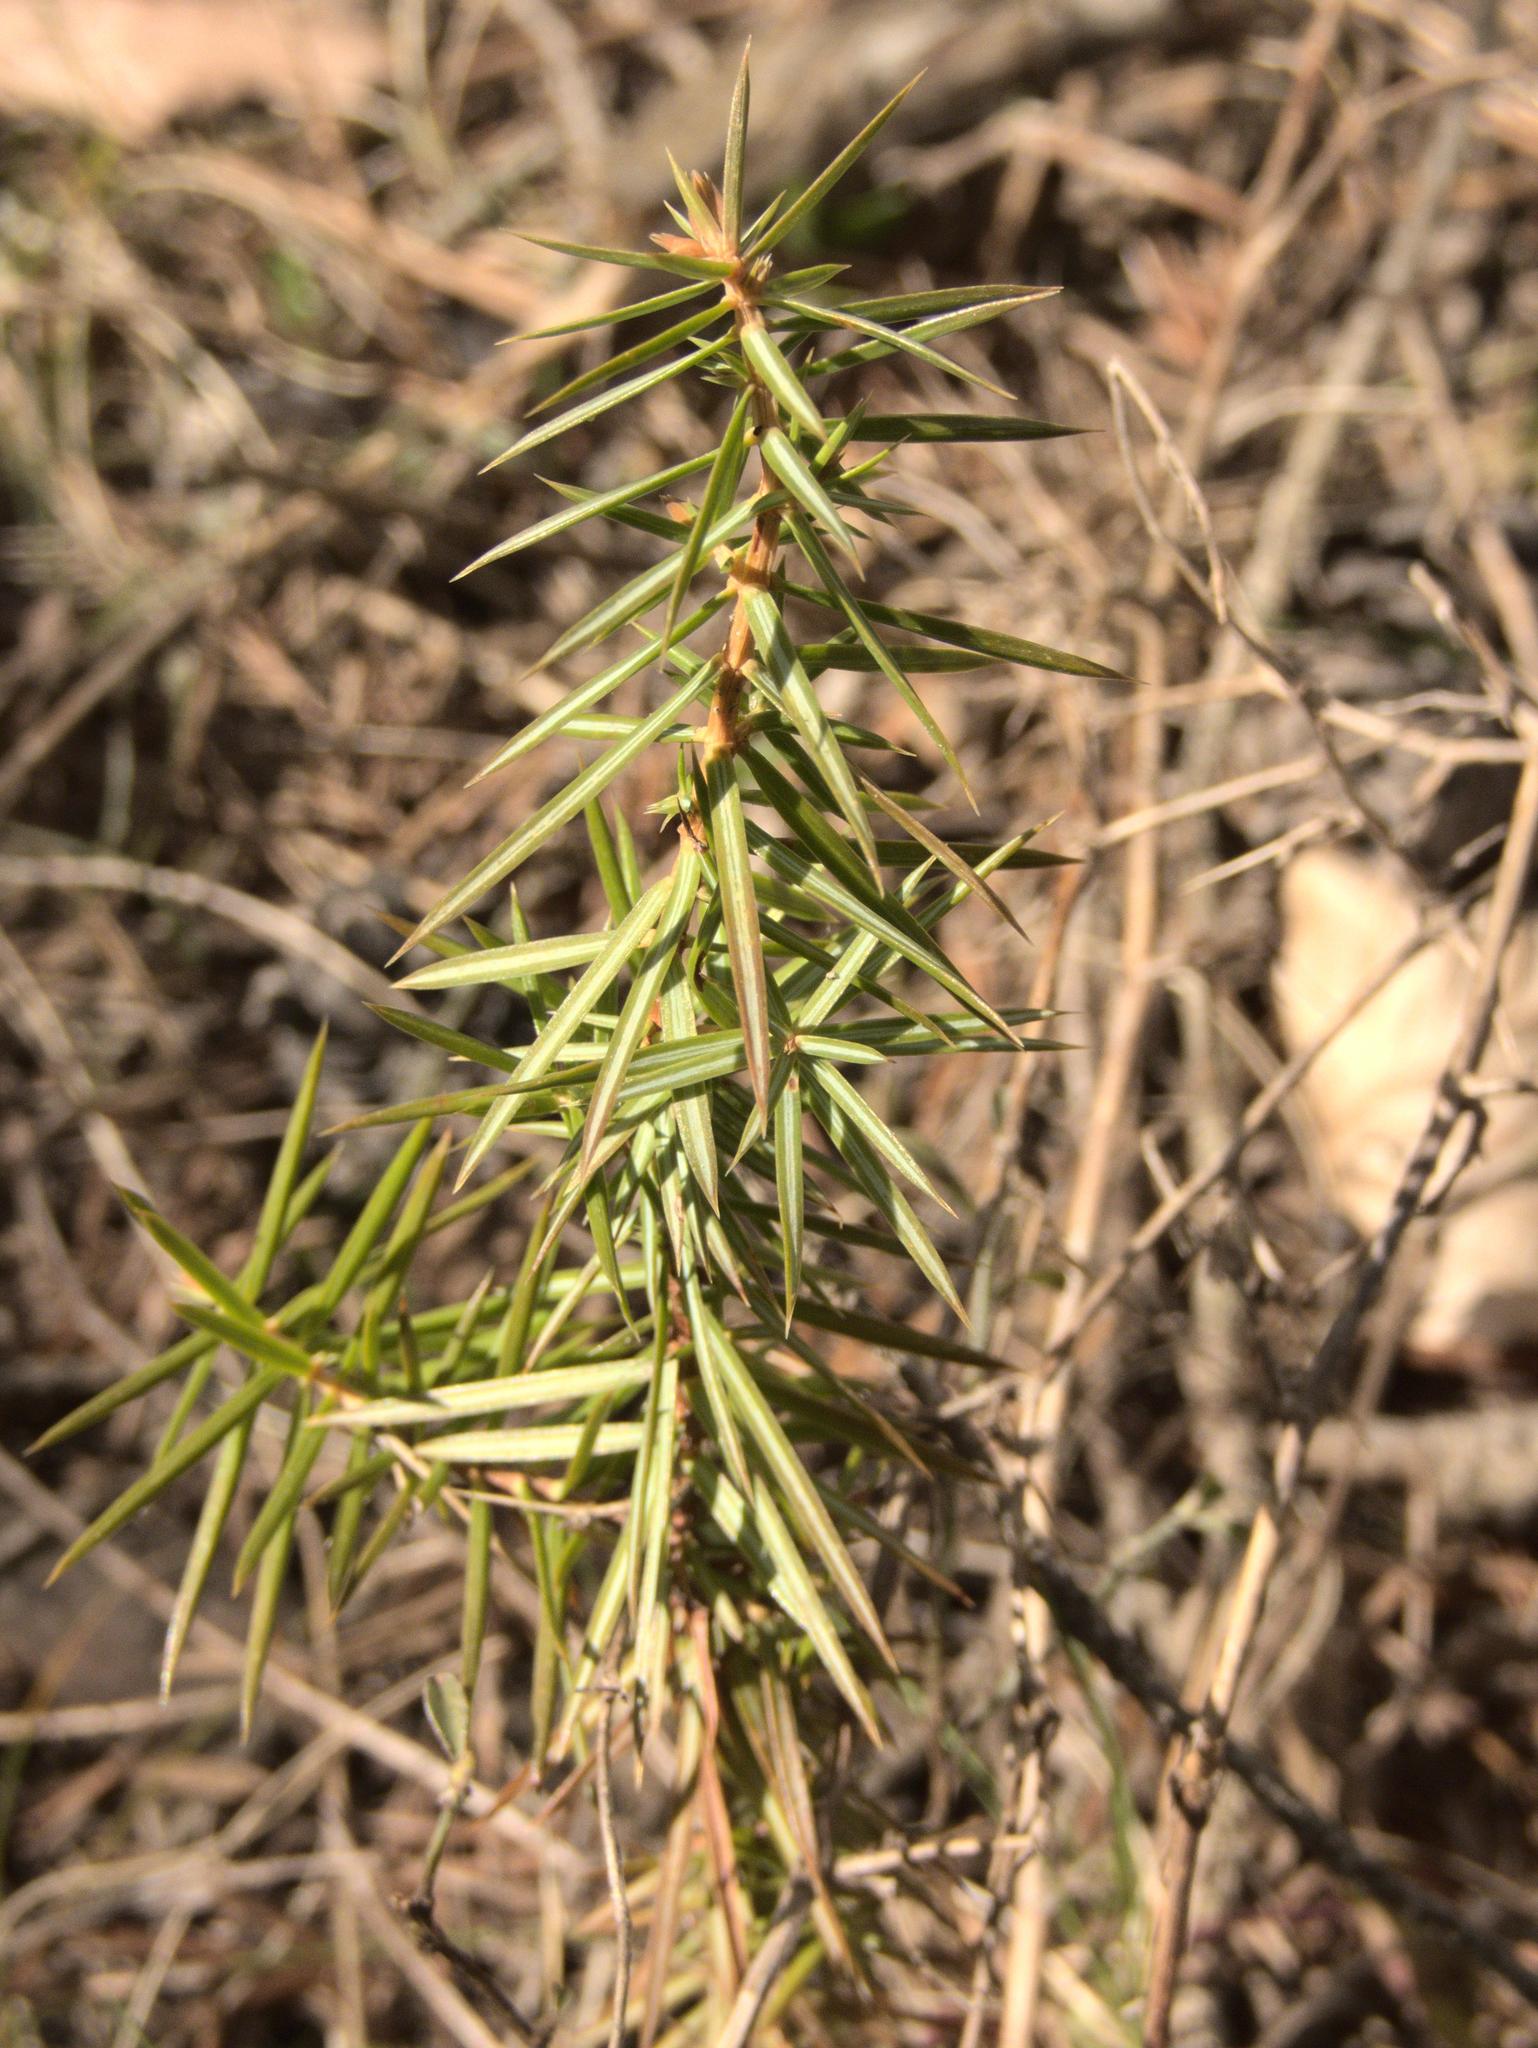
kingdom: Plantae
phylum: Tracheophyta
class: Pinopsida
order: Pinales
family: Cupressaceae
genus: Juniperus
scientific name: Juniperus communis
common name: Common juniper
